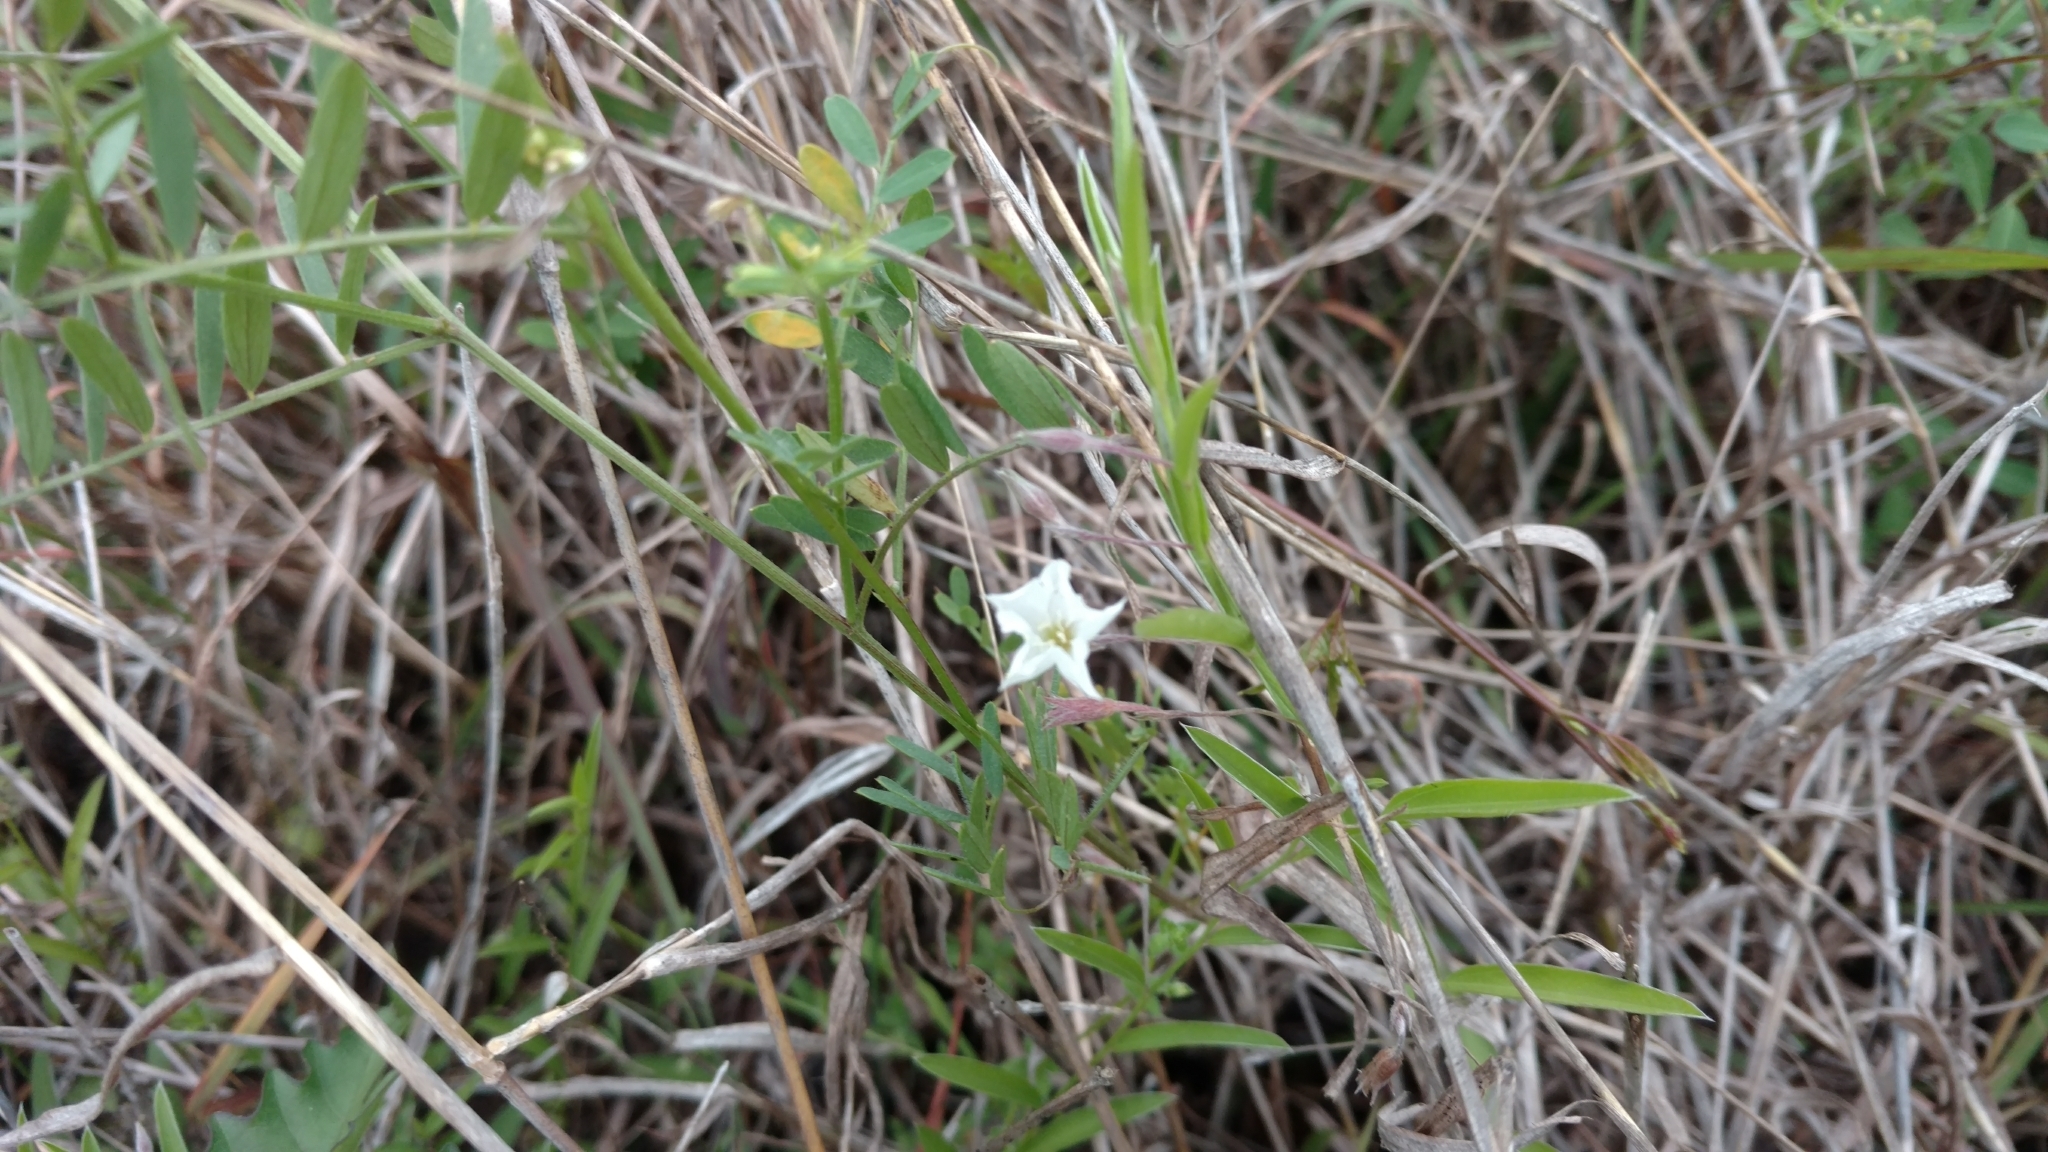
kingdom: Plantae
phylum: Tracheophyta
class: Magnoliopsida
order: Solanales
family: Convolvulaceae
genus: Evolvulus
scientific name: Evolvulus sericeus
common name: Blue dots
